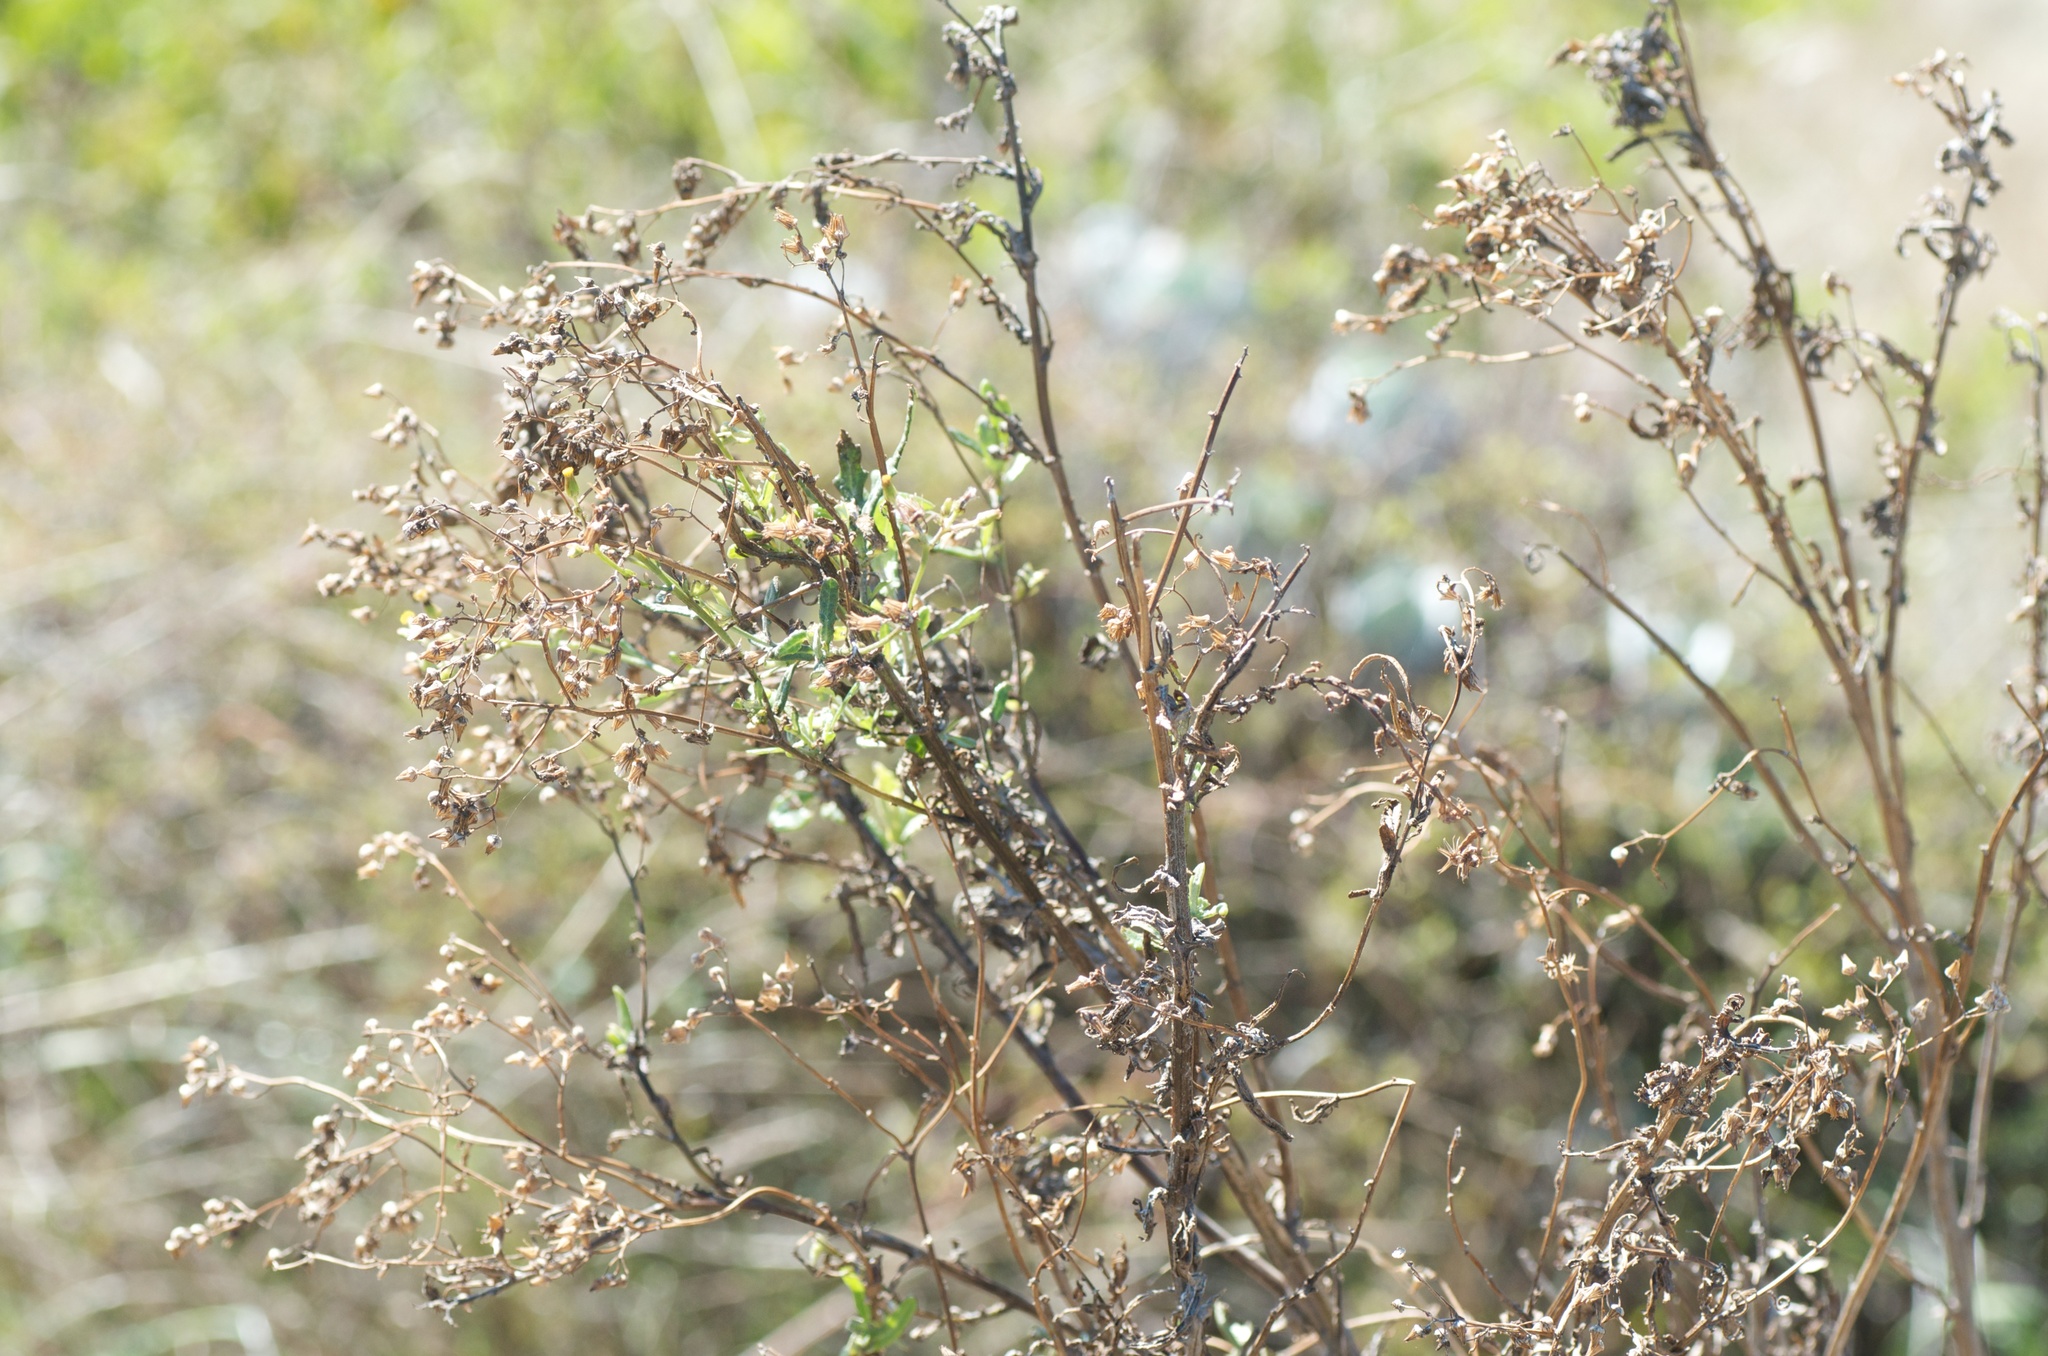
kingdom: Plantae
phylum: Tracheophyta
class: Magnoliopsida
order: Asterales
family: Asteraceae
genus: Senecio
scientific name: Senecio glomeratus
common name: Cutleaf burnweed
